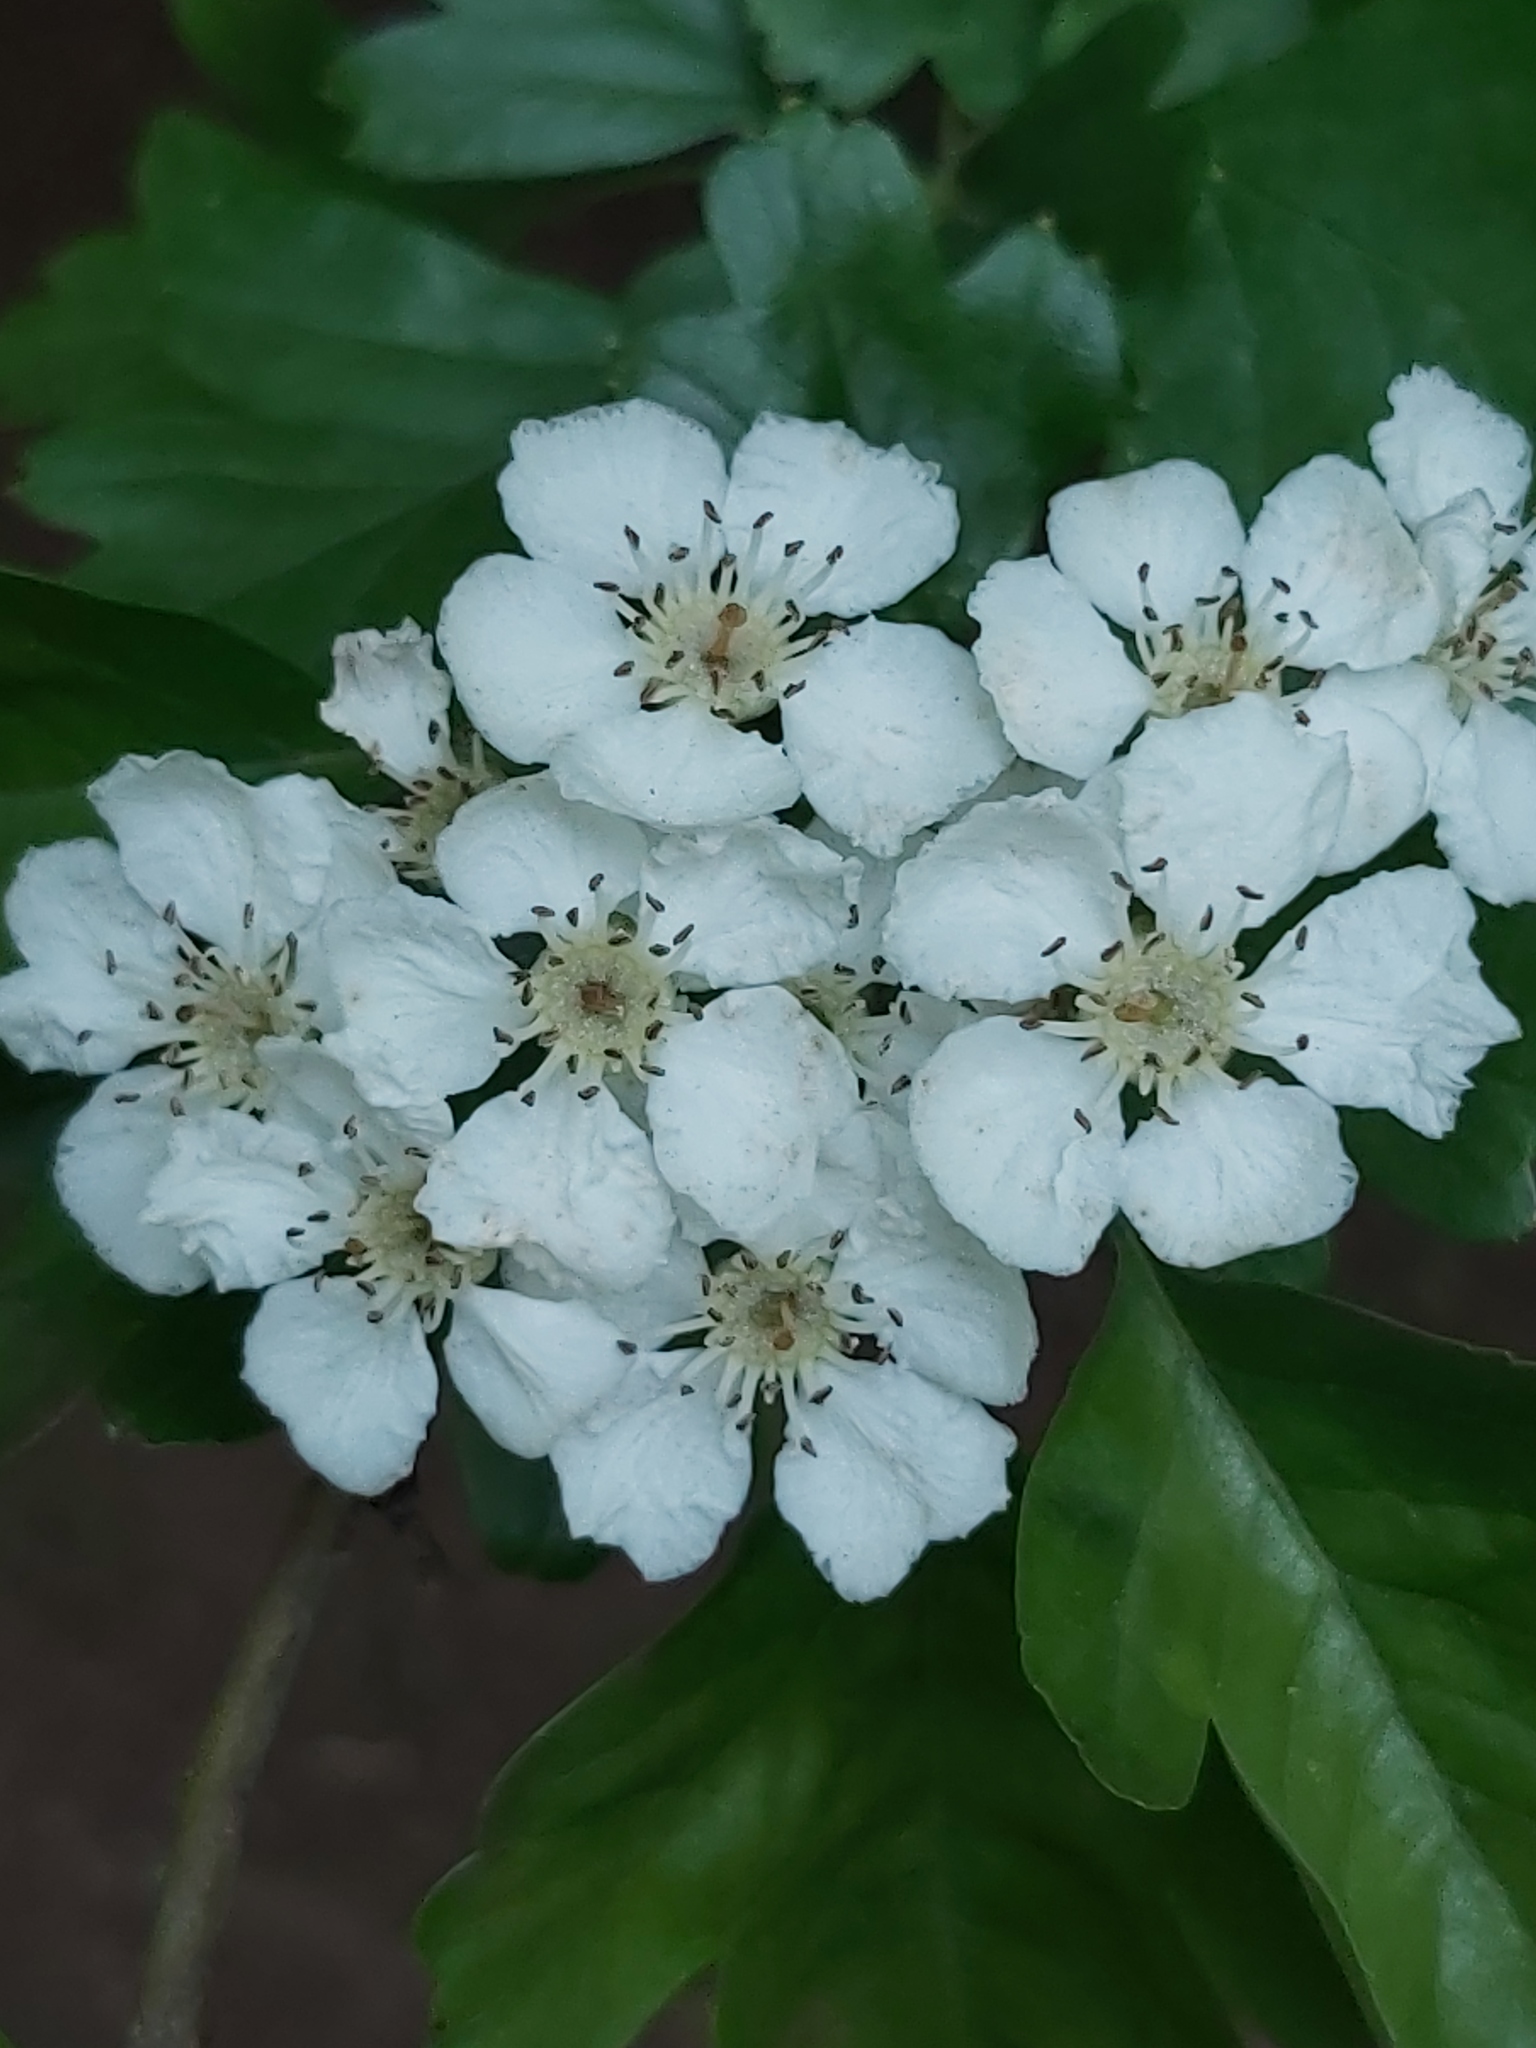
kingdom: Plantae
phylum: Tracheophyta
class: Magnoliopsida
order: Rosales
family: Rosaceae
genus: Crataegus
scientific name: Crataegus monogyna
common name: Hawthorn
